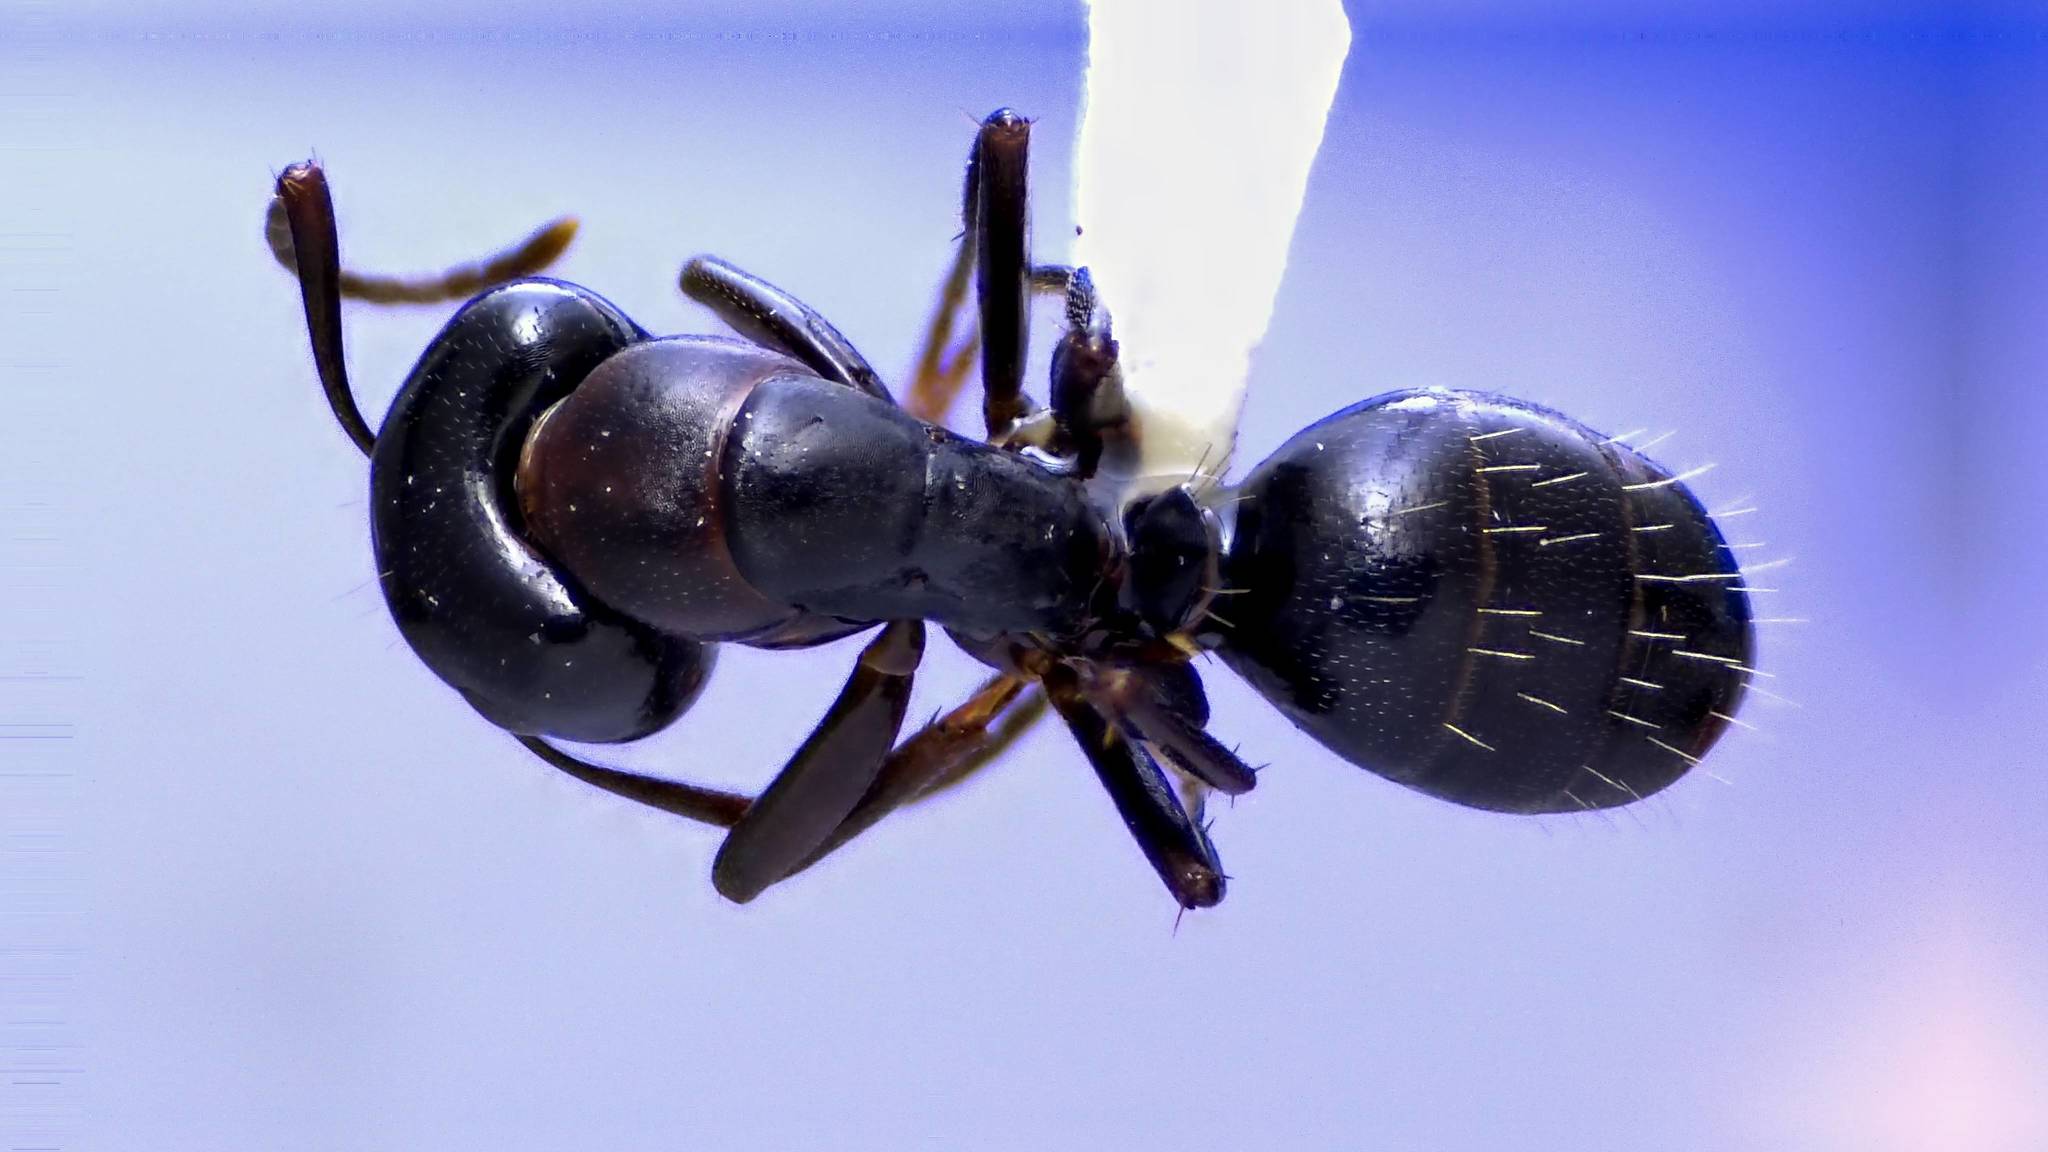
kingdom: Animalia
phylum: Arthropoda
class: Insecta
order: Hymenoptera
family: Formicidae
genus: Camponotus
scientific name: Camponotus nearcticus
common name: Smaller carpenter ant
